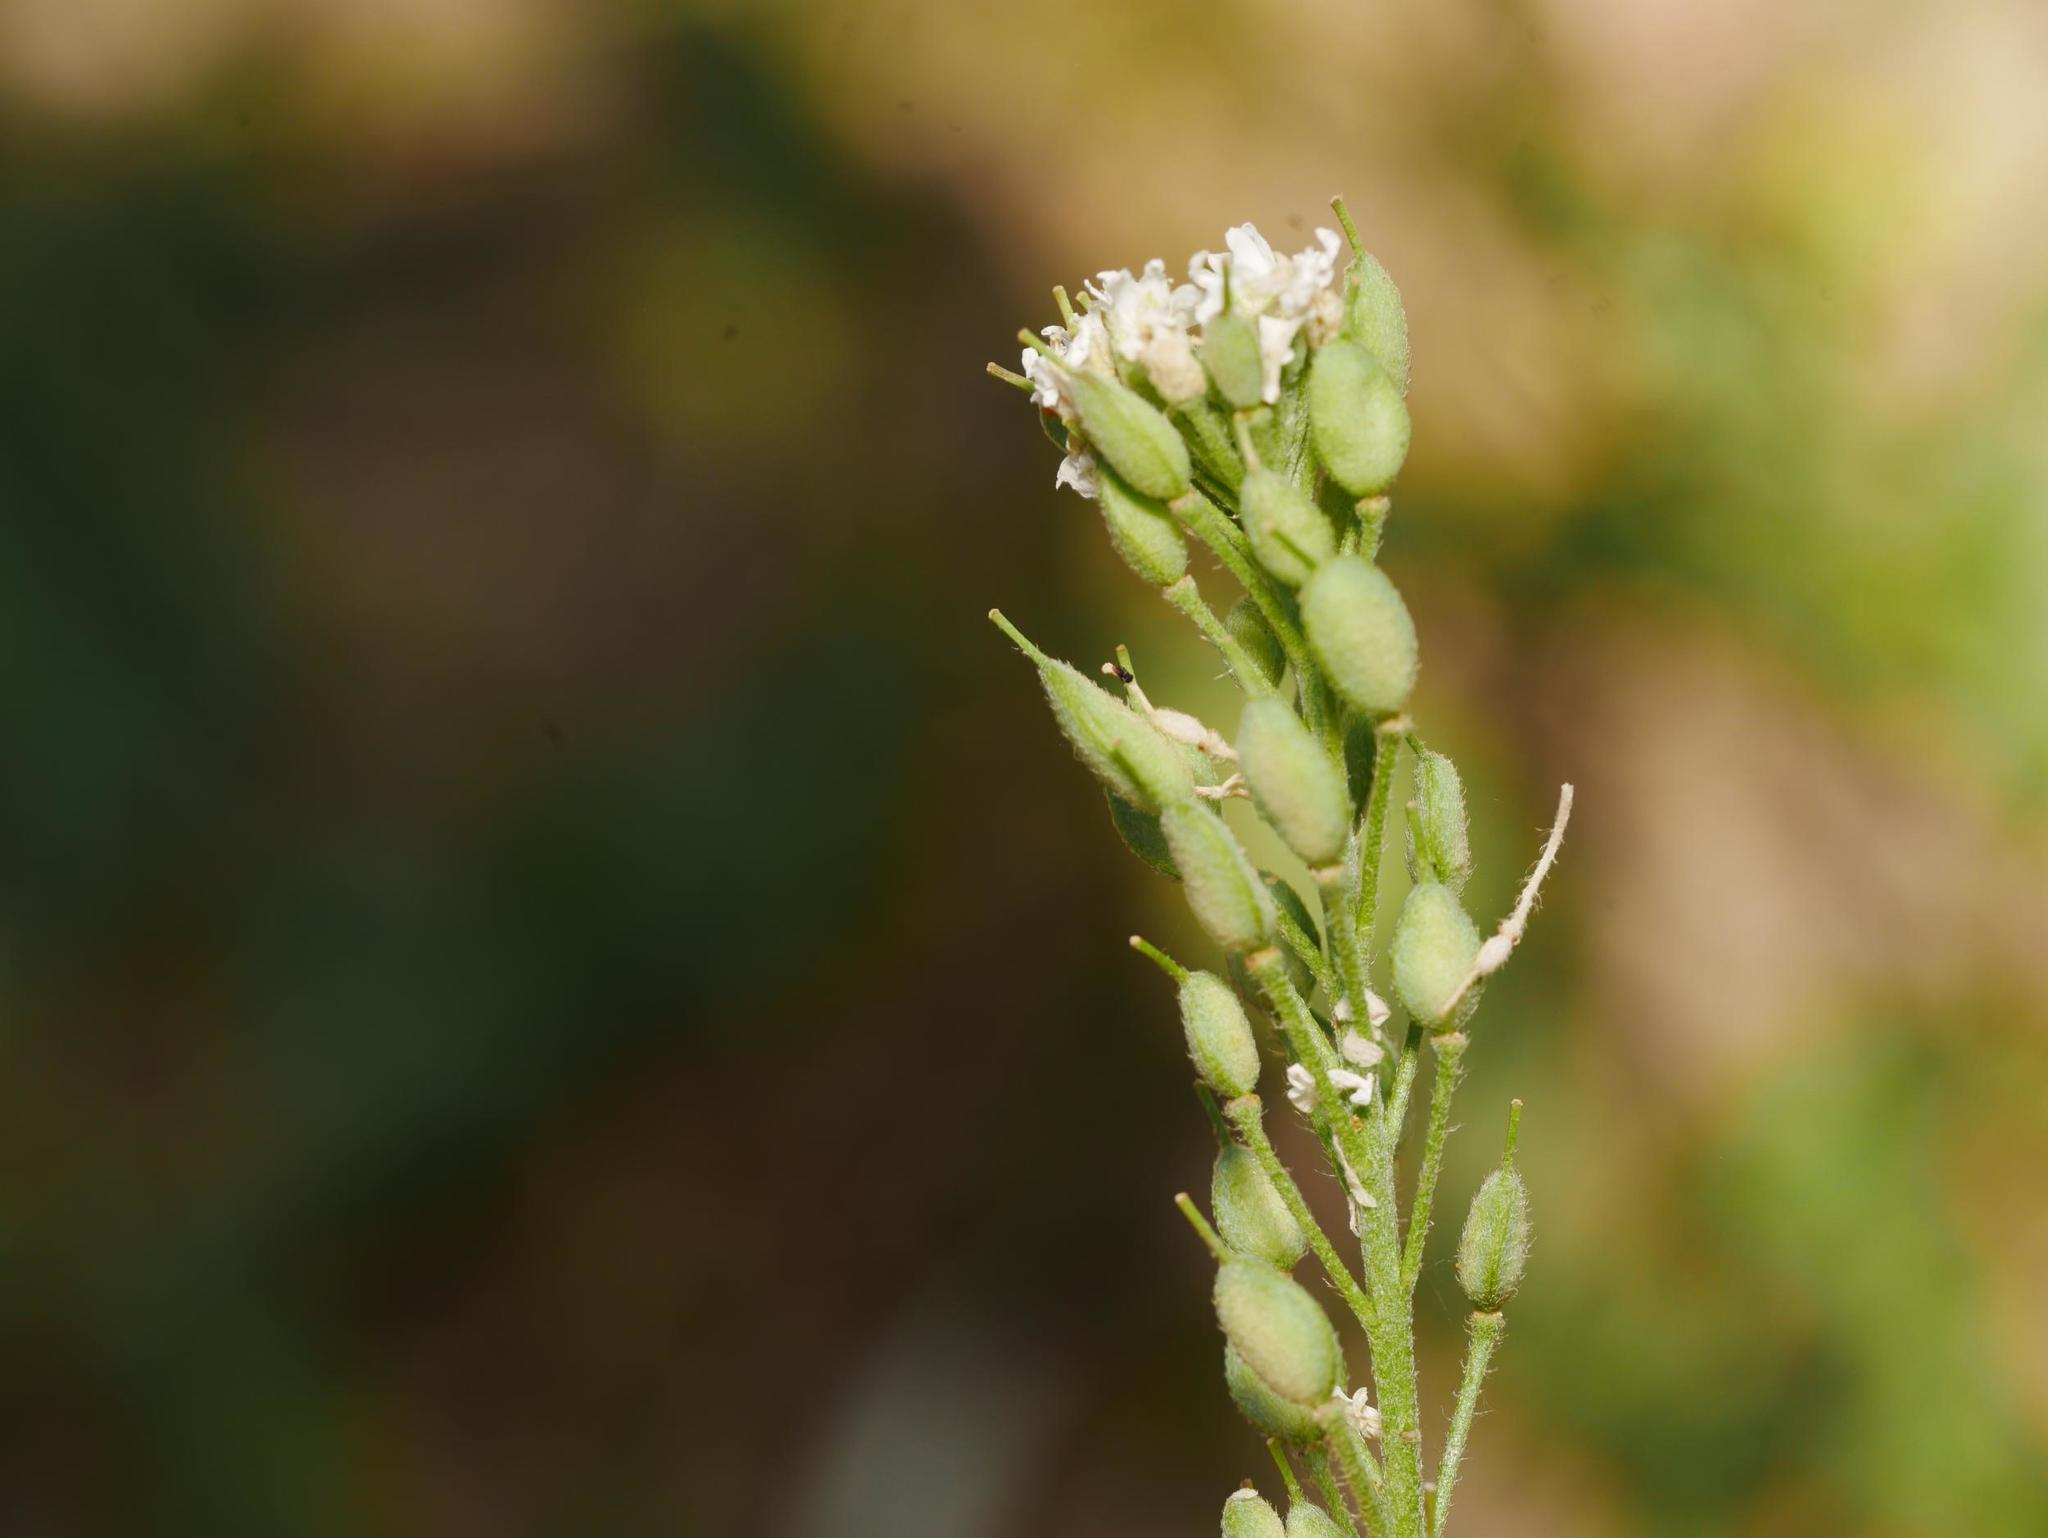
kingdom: Plantae
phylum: Tracheophyta
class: Magnoliopsida
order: Brassicales
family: Brassicaceae
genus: Berteroa
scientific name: Berteroa incana
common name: Hoary alison
